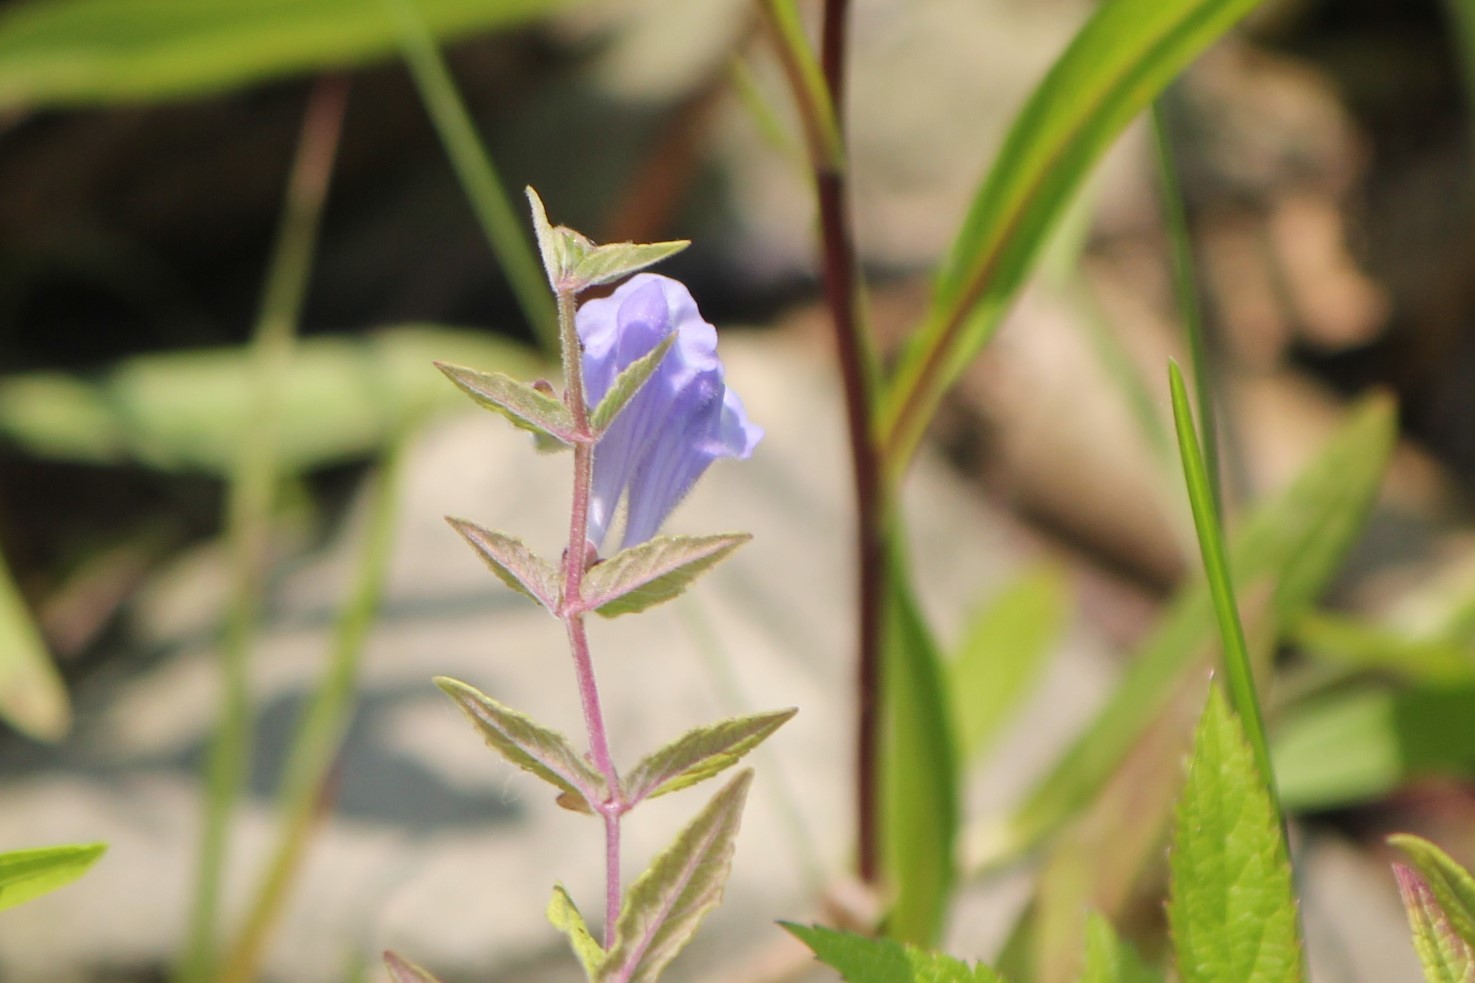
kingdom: Plantae
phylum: Tracheophyta
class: Magnoliopsida
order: Lamiales
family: Lamiaceae
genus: Scutellaria
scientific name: Scutellaria galericulata
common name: Skullcap
